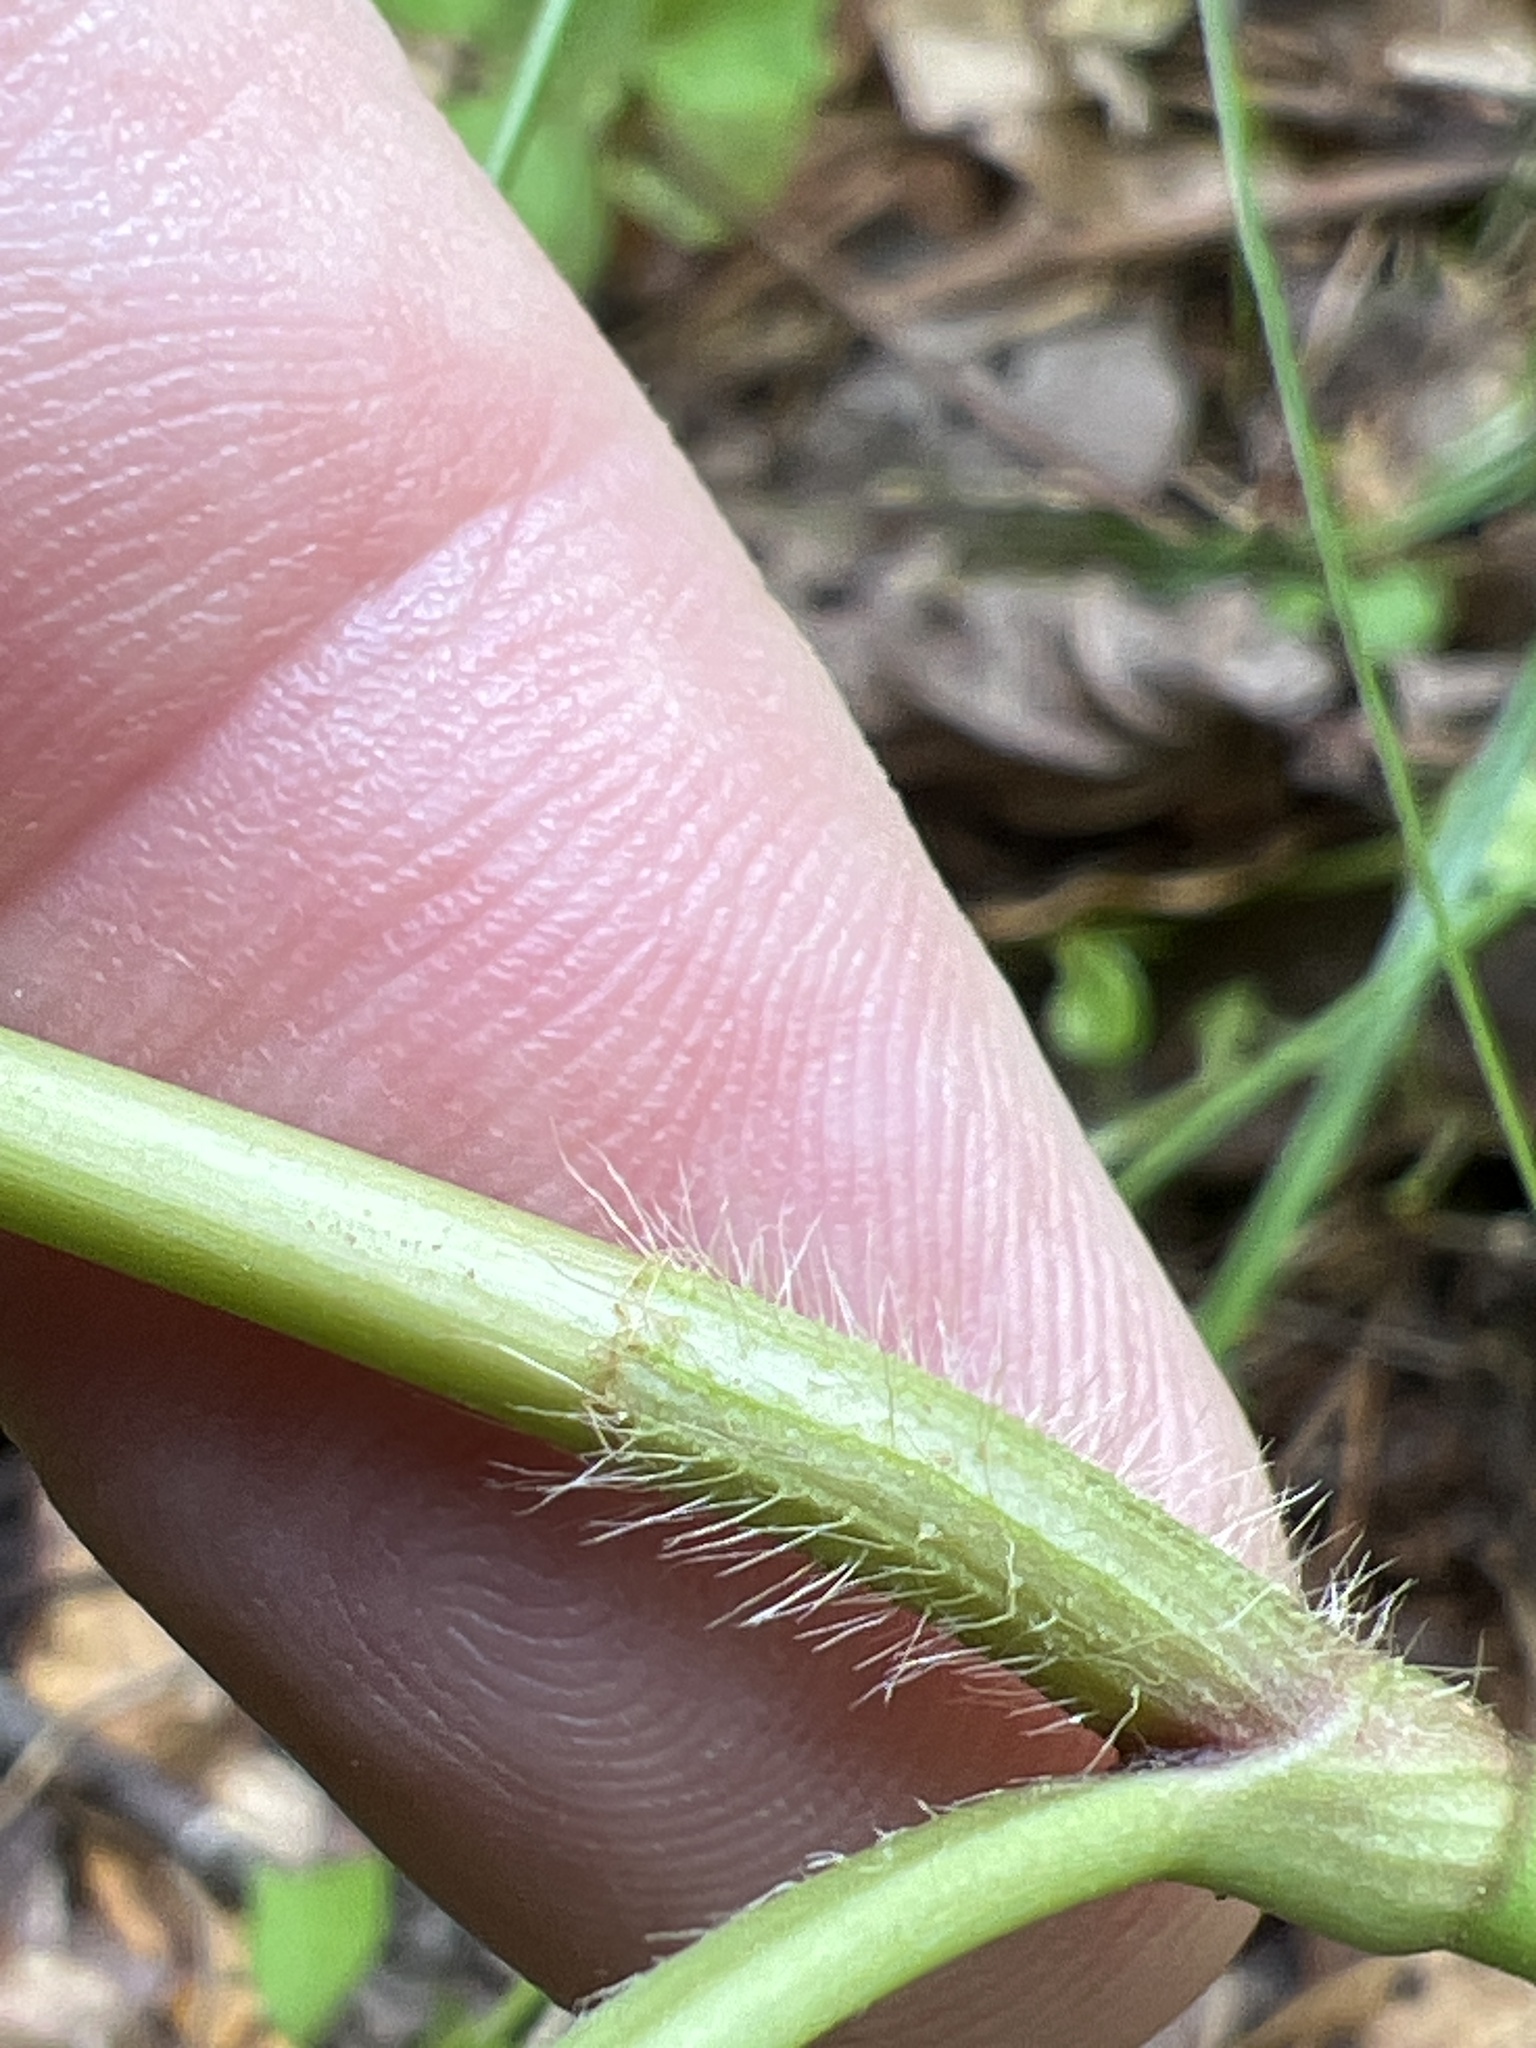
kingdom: Plantae
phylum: Tracheophyta
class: Magnoliopsida
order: Caryophyllales
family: Polygonaceae
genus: Persicaria
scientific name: Persicaria virginiana
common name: Jumpseed
